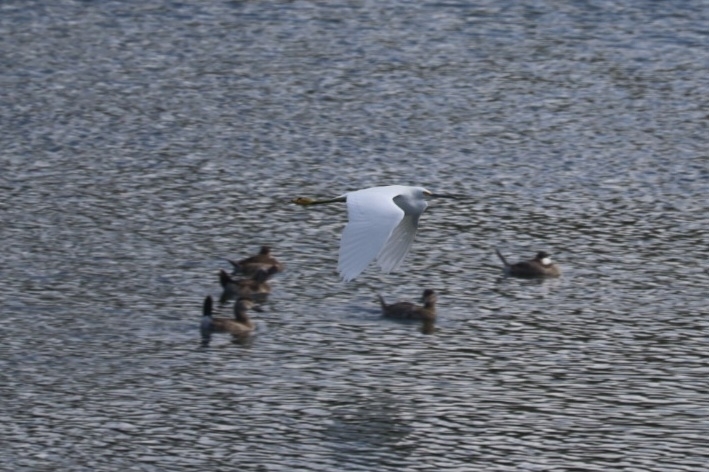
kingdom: Animalia
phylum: Chordata
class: Aves
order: Pelecaniformes
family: Ardeidae
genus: Egretta
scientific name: Egretta thula
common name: Snowy egret
